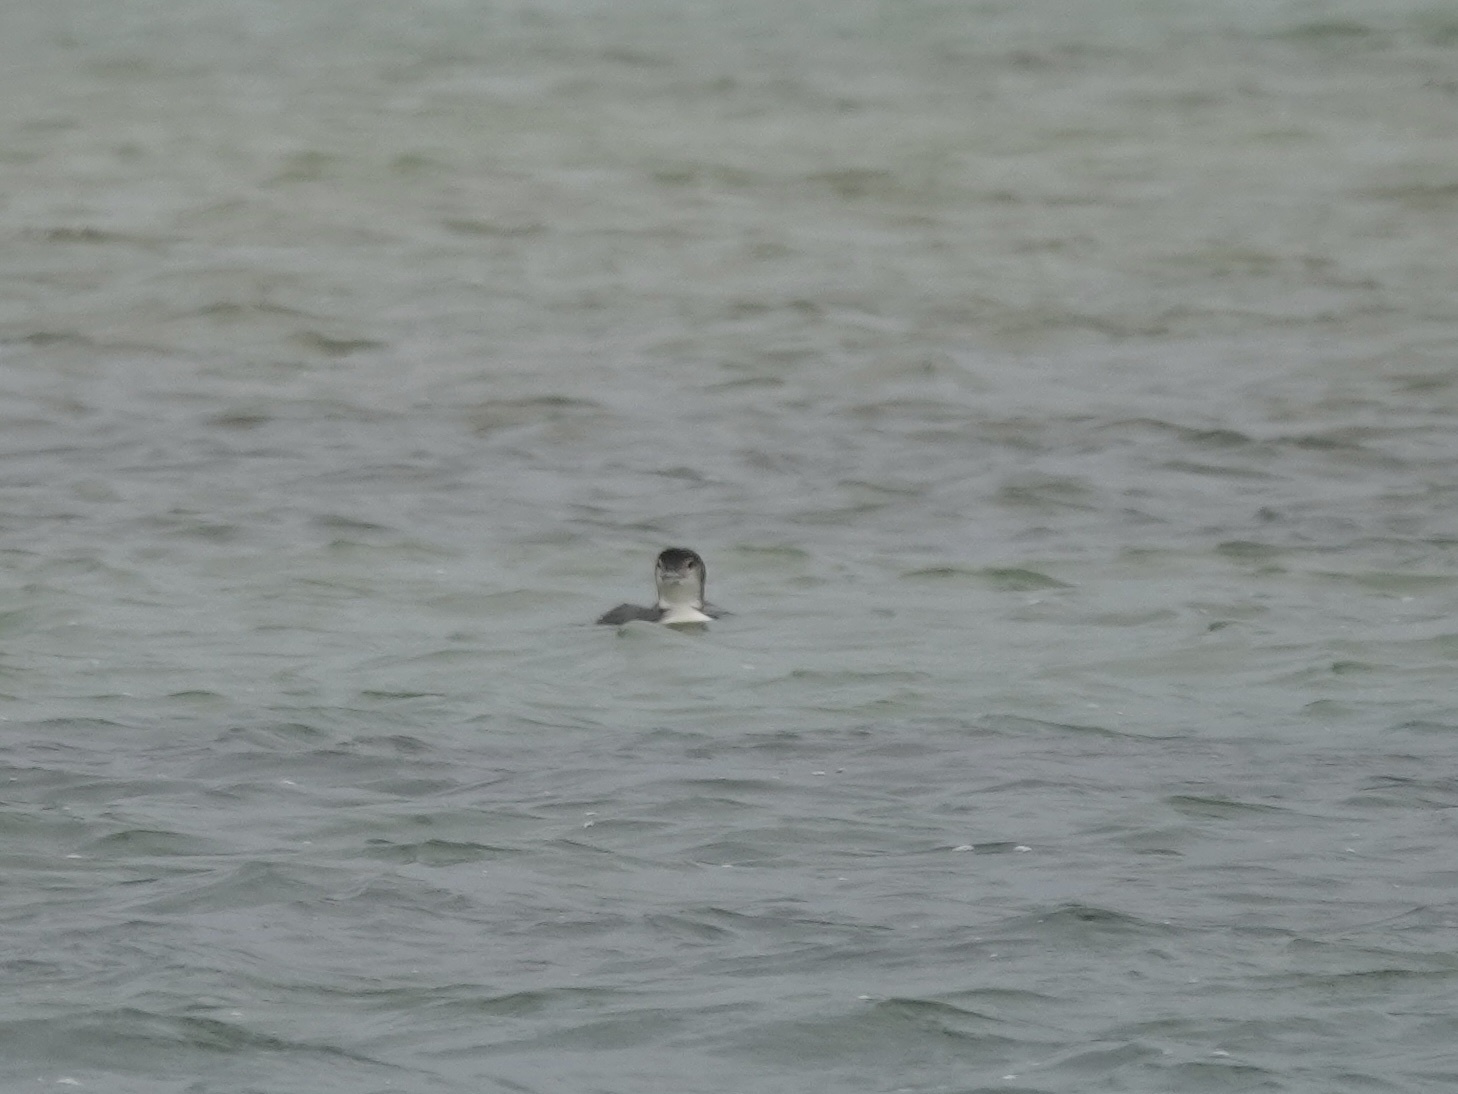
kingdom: Animalia
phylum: Chordata
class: Aves
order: Gaviiformes
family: Gaviidae
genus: Gavia
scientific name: Gavia immer
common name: Common loon
